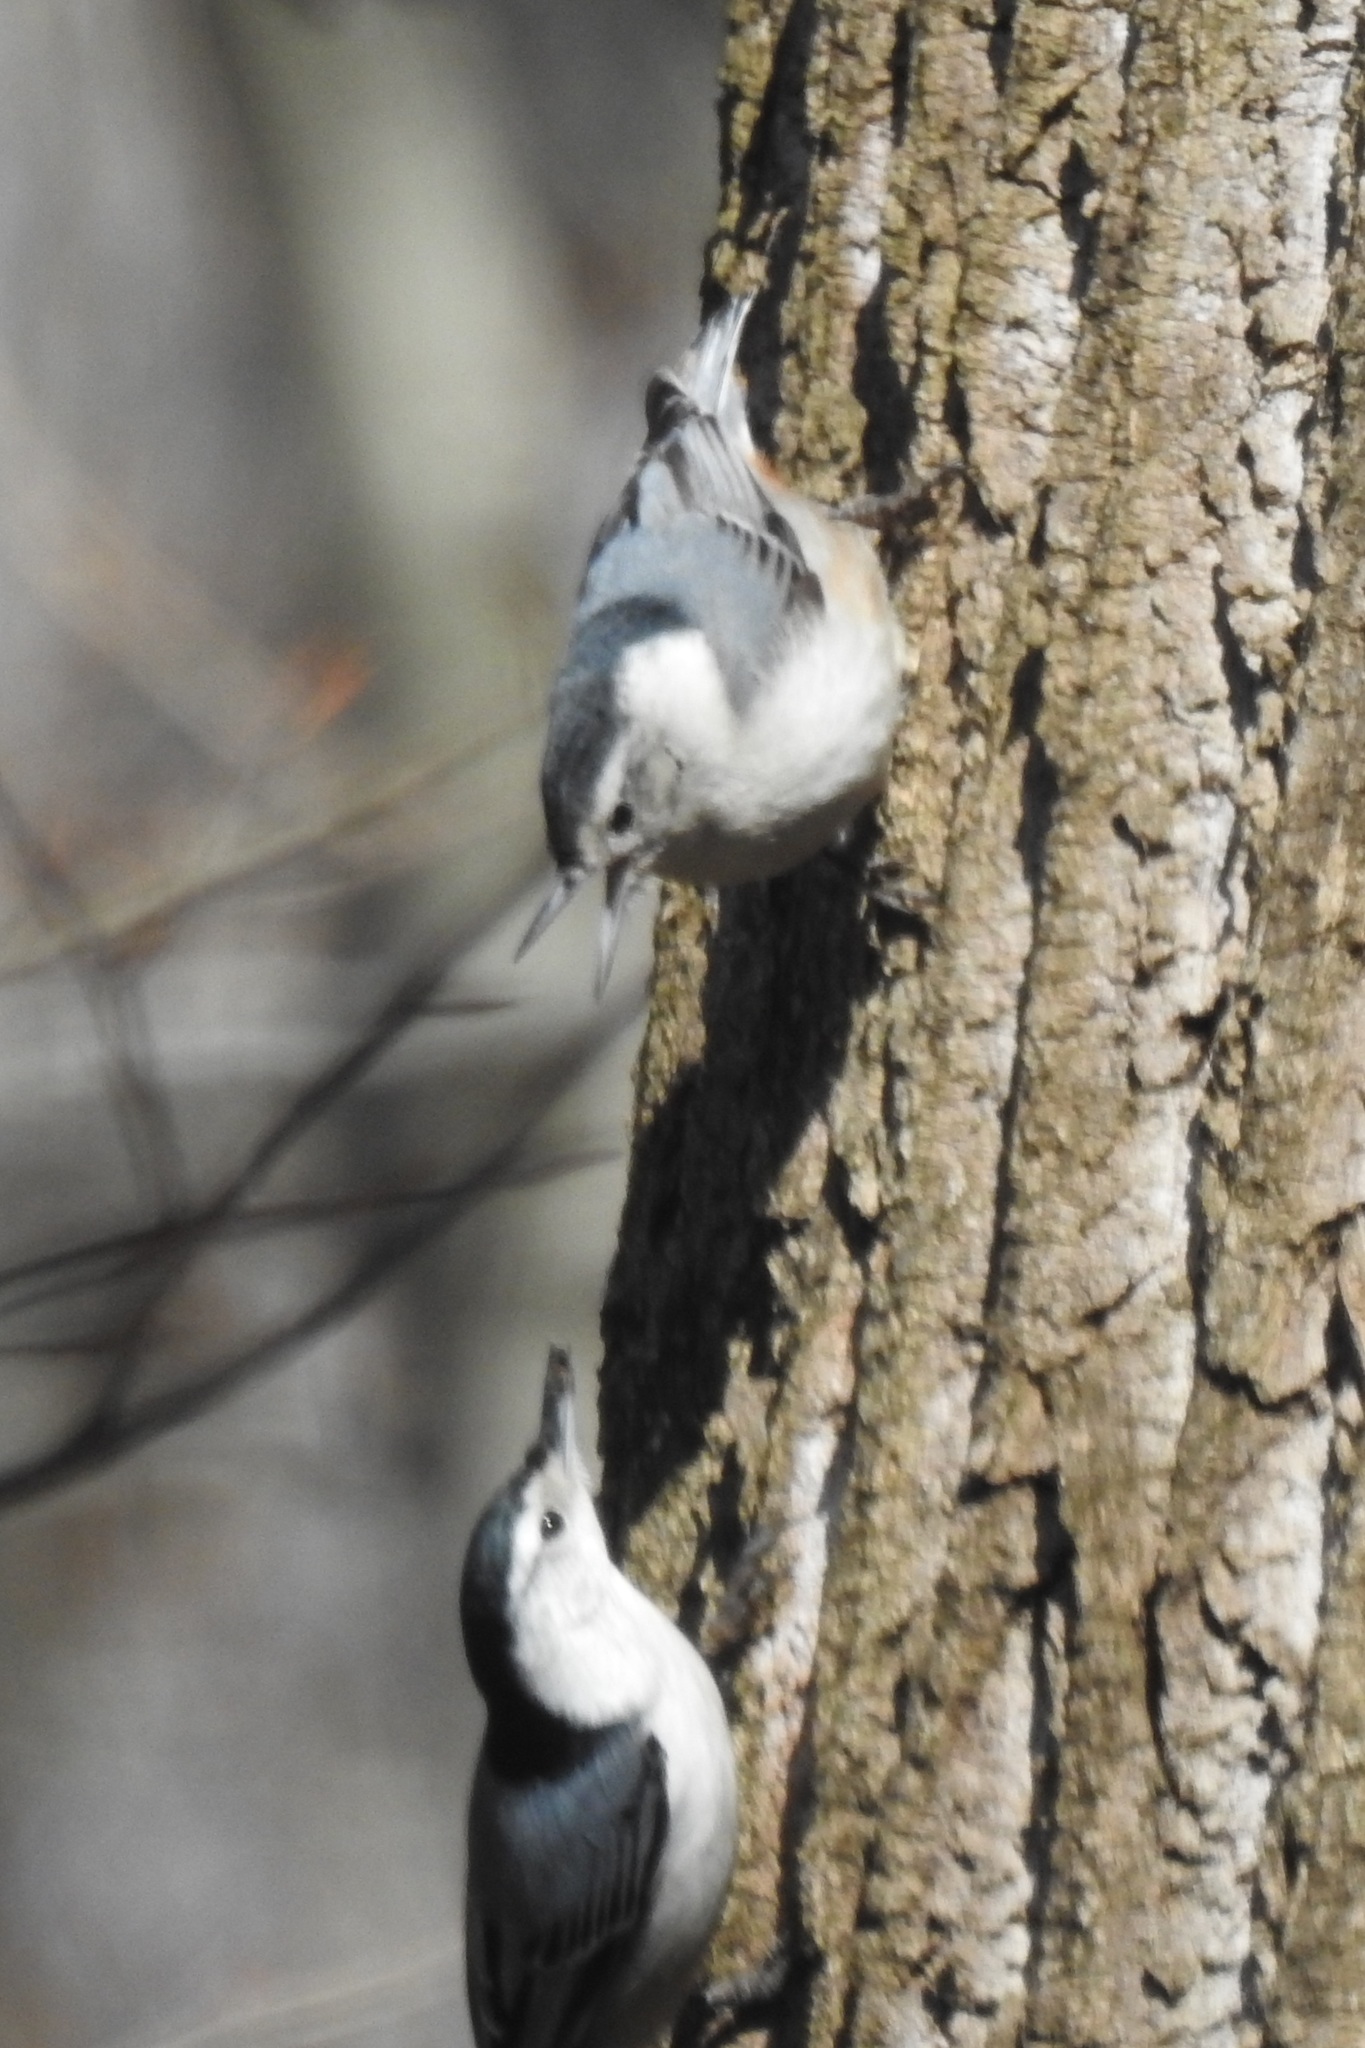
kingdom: Animalia
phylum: Chordata
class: Aves
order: Passeriformes
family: Sittidae
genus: Sitta
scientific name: Sitta carolinensis
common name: White-breasted nuthatch
